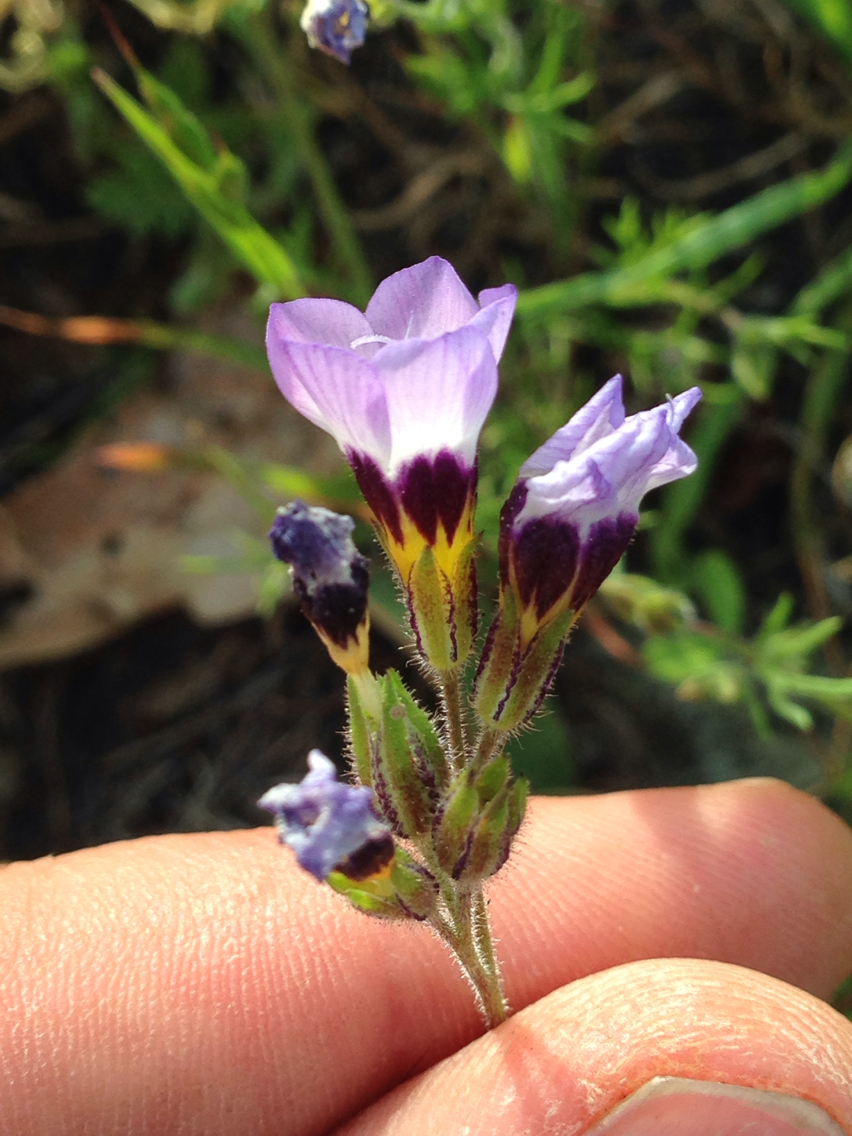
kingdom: Plantae
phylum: Tracheophyta
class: Magnoliopsida
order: Ericales
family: Polemoniaceae
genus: Gilia
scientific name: Gilia tricolor
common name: Bird's-eyes
